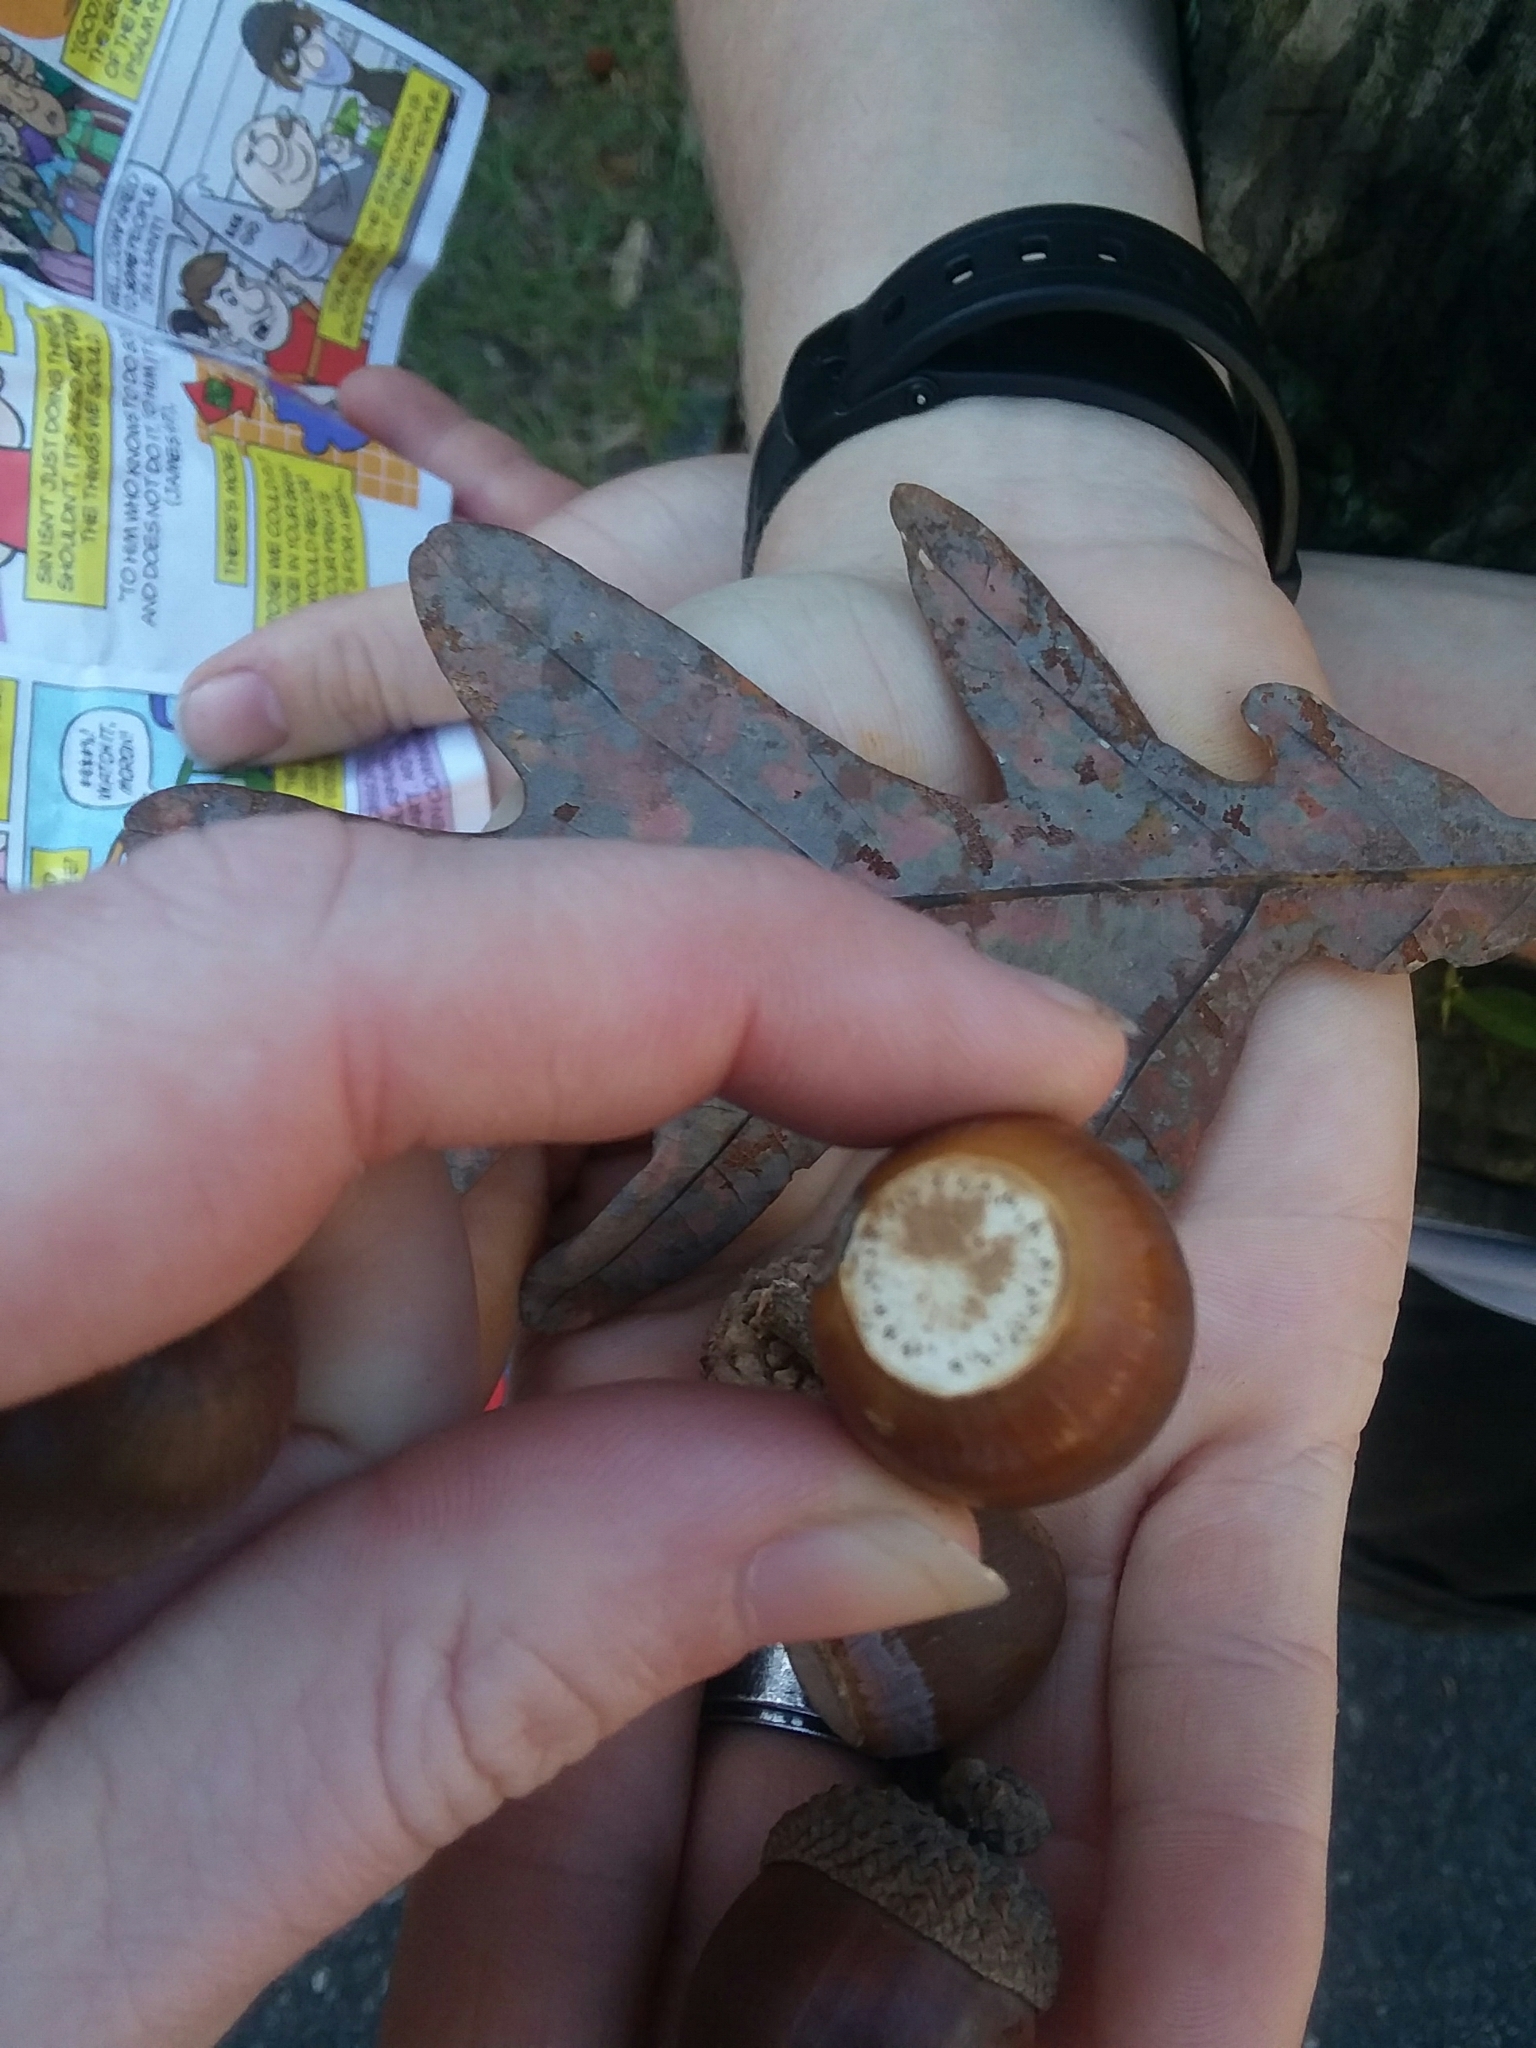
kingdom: Plantae
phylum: Tracheophyta
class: Magnoliopsida
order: Fagales
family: Fagaceae
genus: Quercus
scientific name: Quercus alba
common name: White oak
